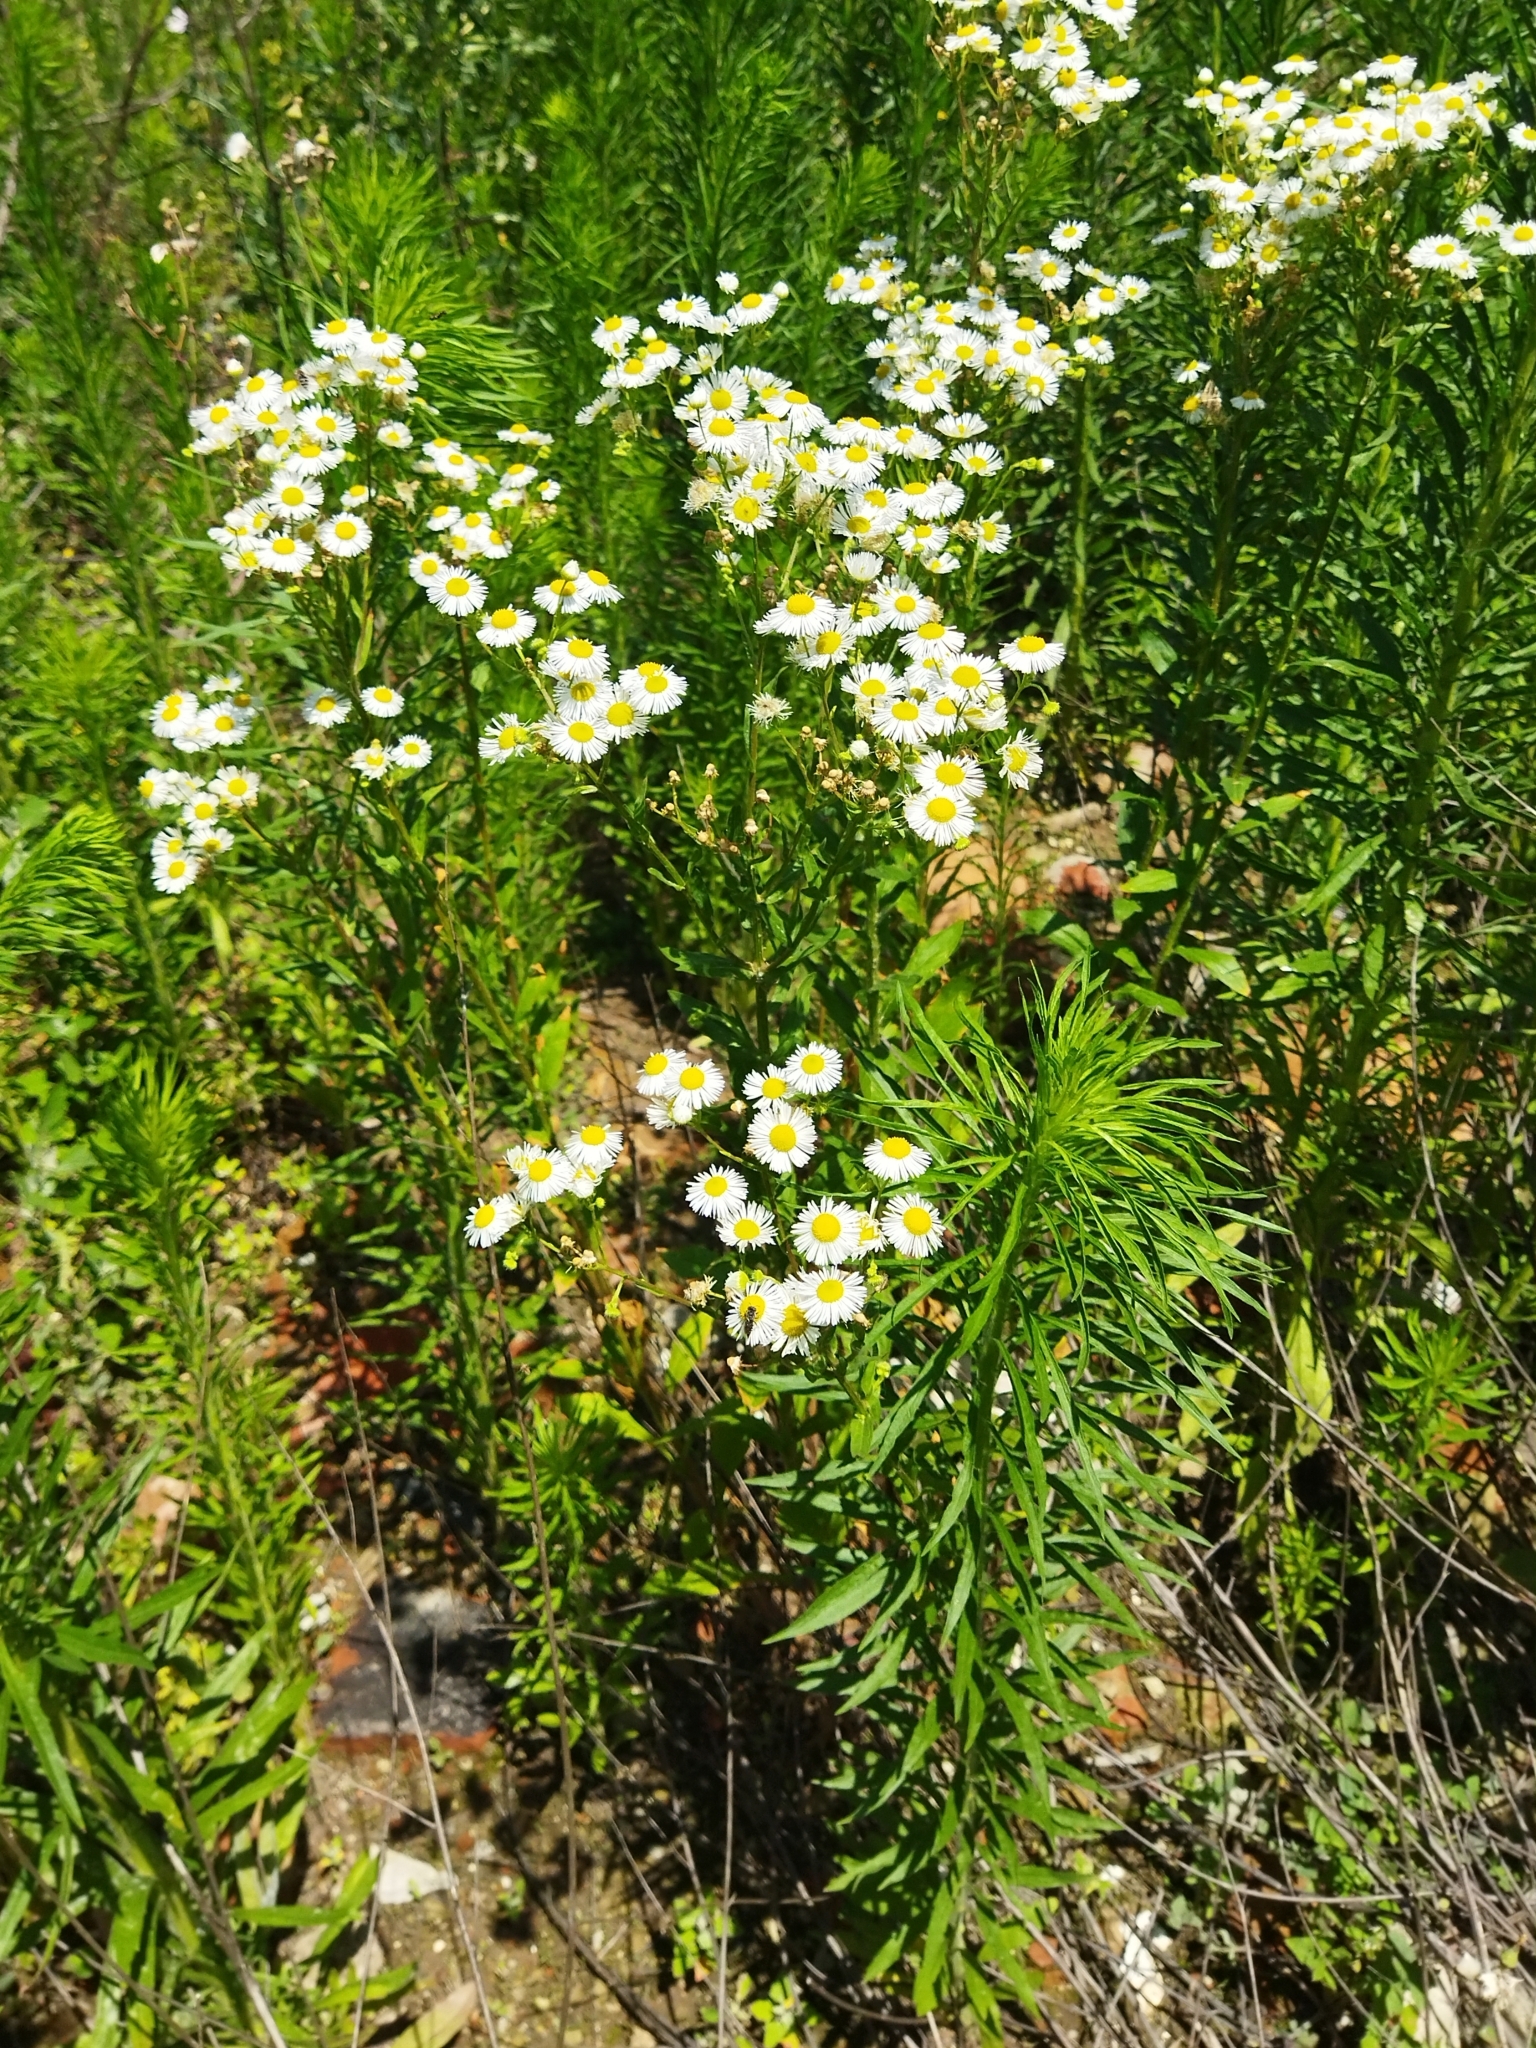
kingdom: Plantae
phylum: Tracheophyta
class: Magnoliopsida
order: Asterales
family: Asteraceae
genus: Erigeron
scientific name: Erigeron annuus
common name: Tall fleabane
